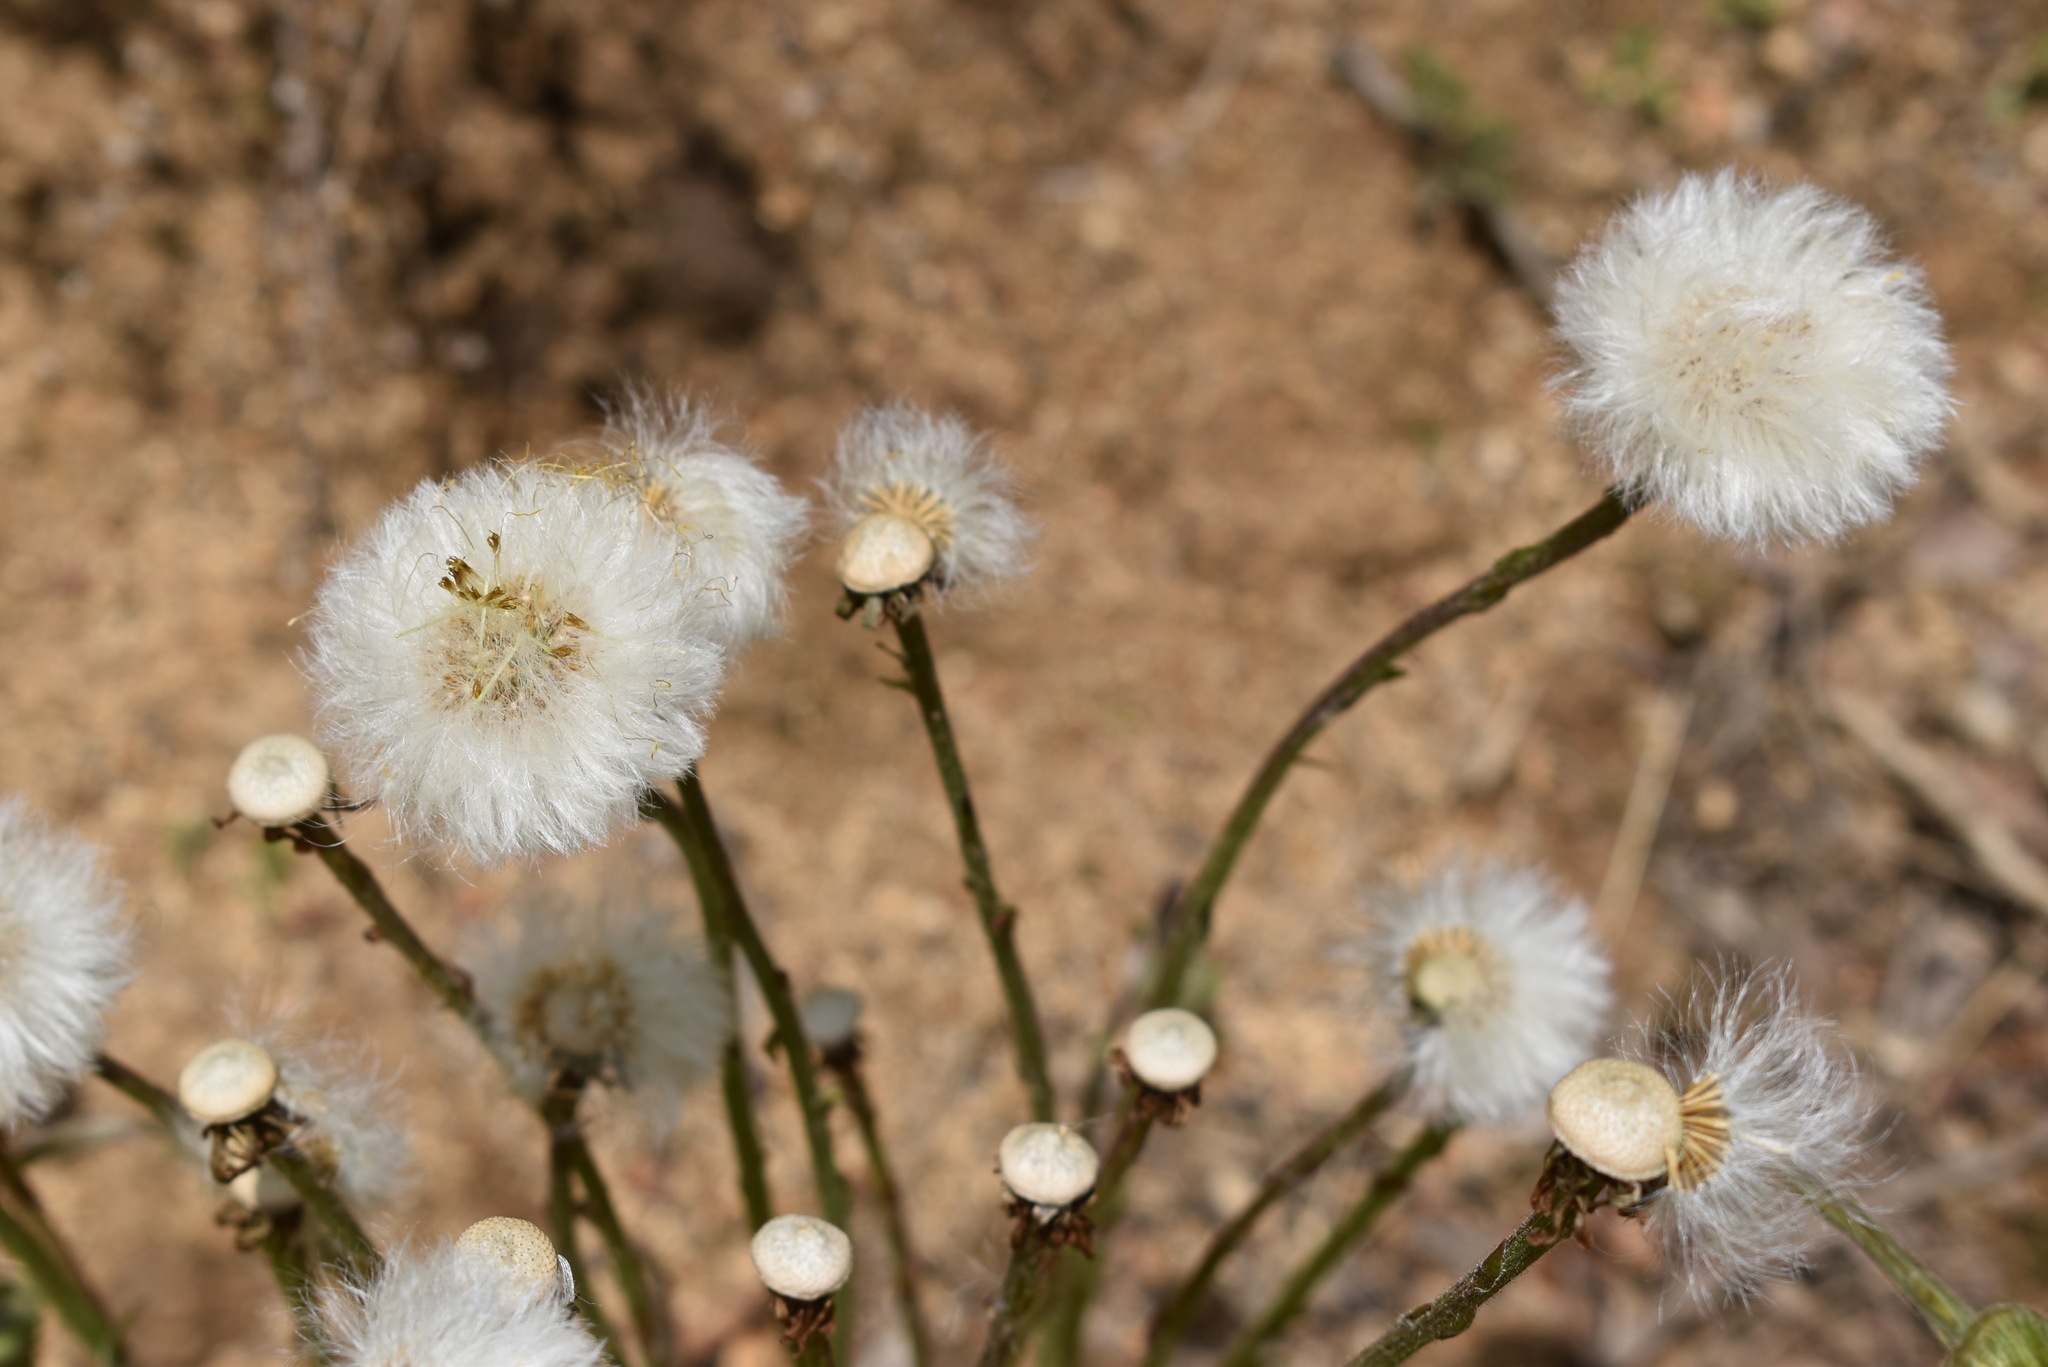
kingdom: Plantae
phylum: Tracheophyta
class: Magnoliopsida
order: Asterales
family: Asteraceae
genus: Tussilago
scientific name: Tussilago farfara
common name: Coltsfoot
